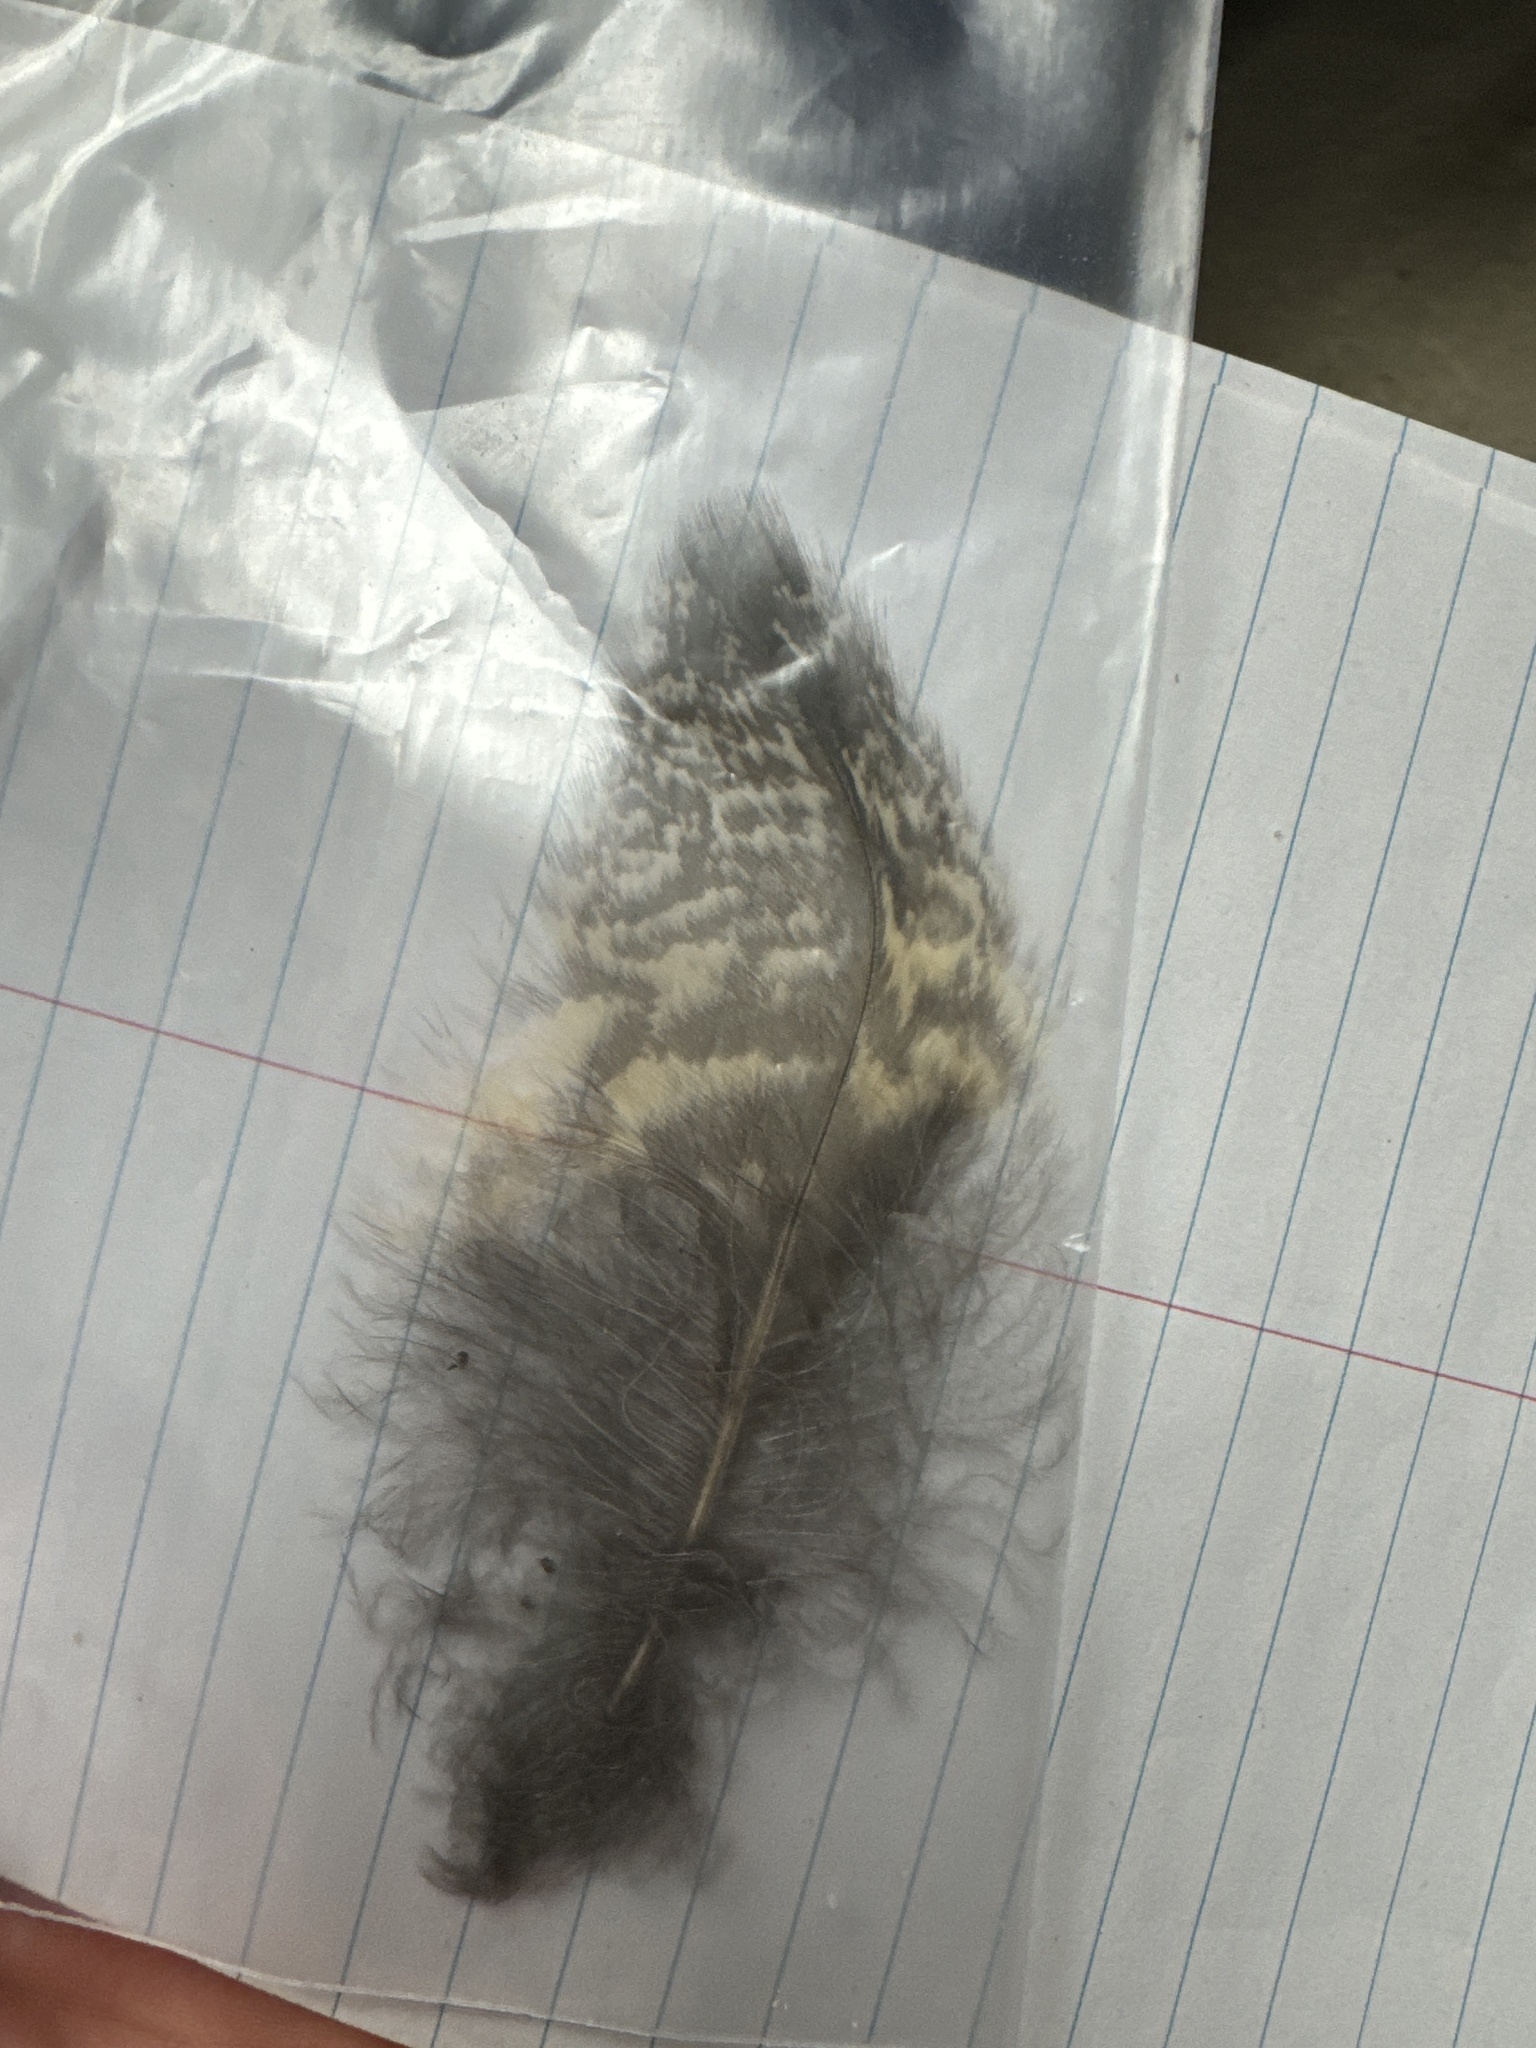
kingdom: Animalia
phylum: Chordata
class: Aves
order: Strigiformes
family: Strigidae
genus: Bubo
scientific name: Bubo virginianus
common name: Great horned owl
